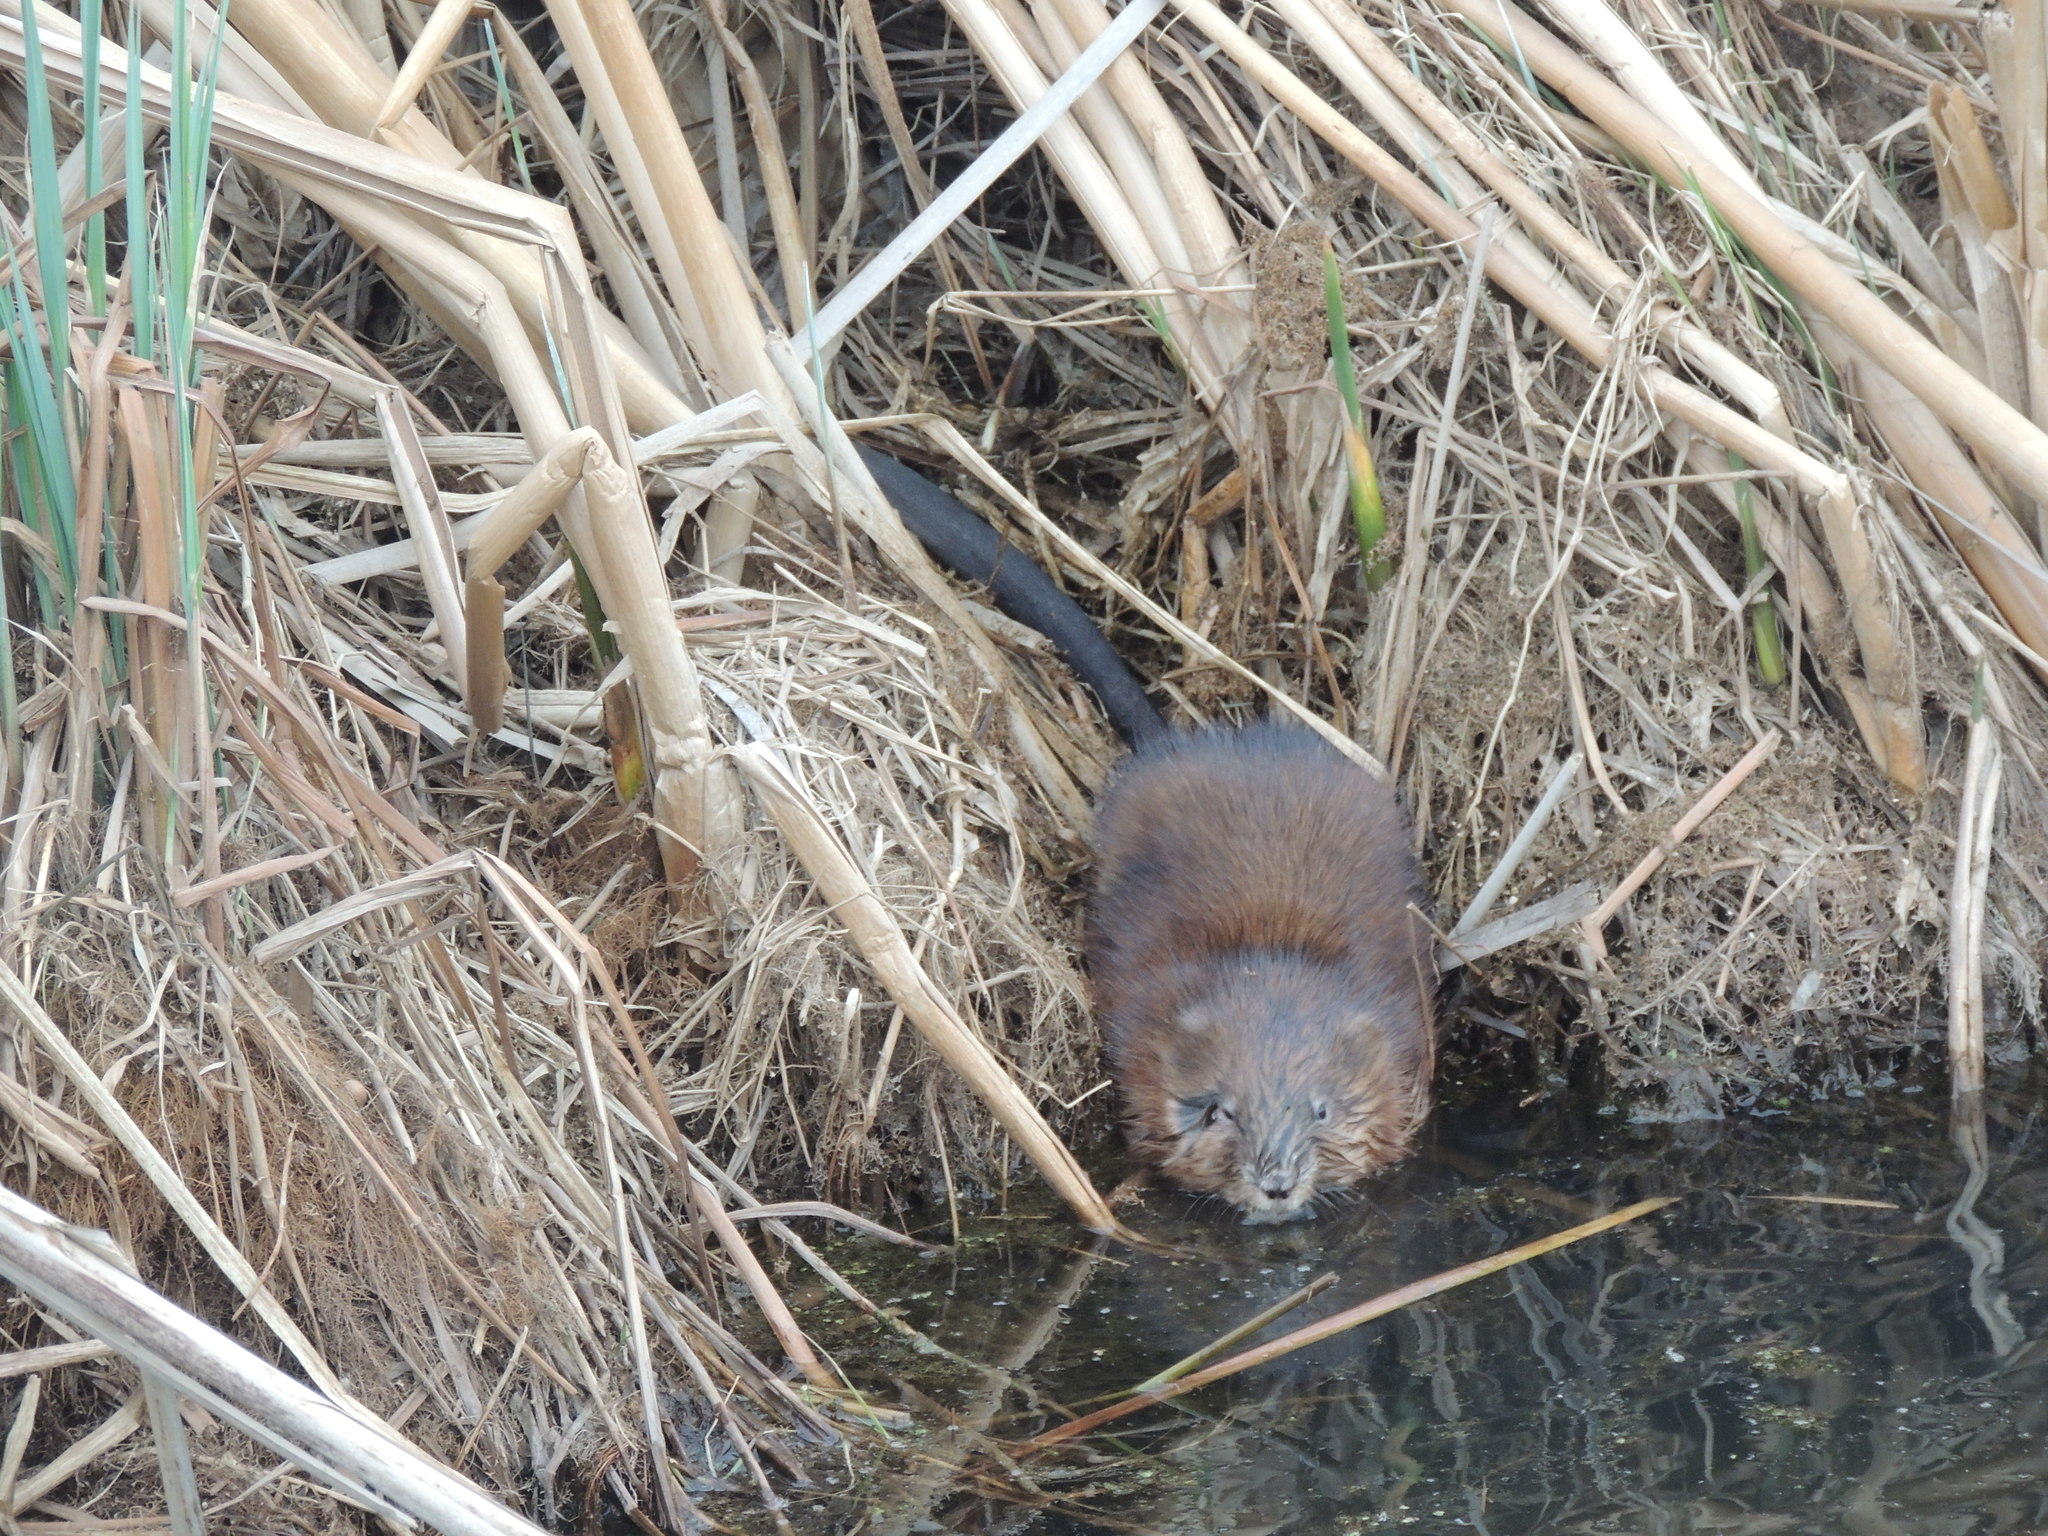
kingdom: Animalia
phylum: Chordata
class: Mammalia
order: Rodentia
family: Cricetidae
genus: Ondatra
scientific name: Ondatra zibethicus
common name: Muskrat
